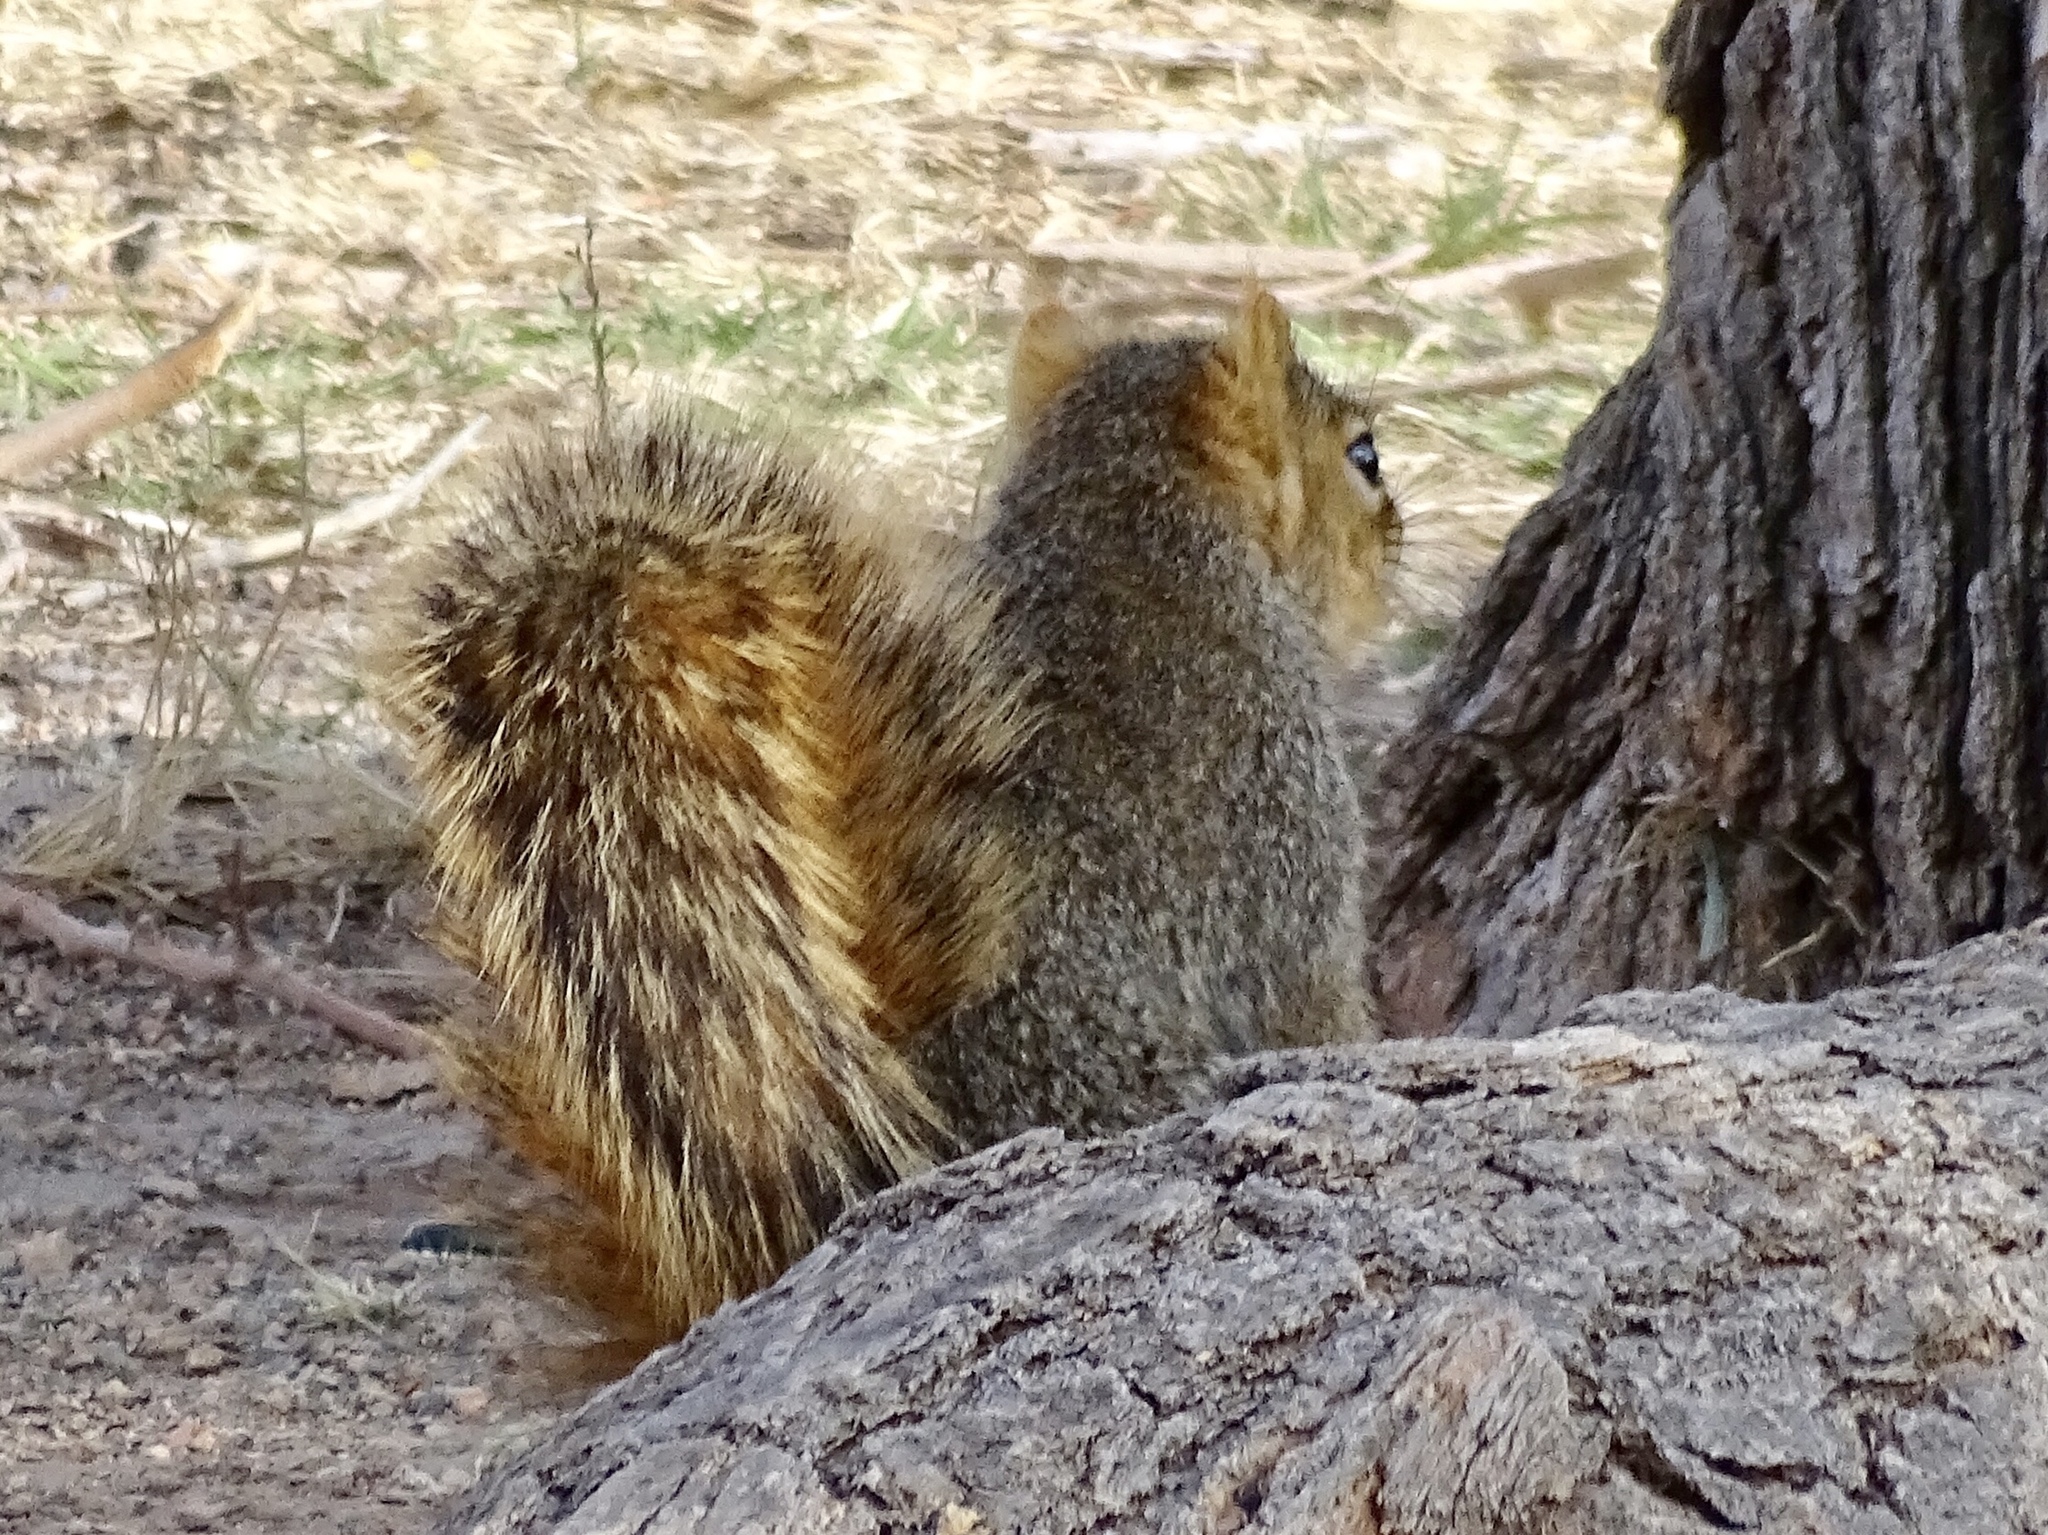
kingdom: Animalia
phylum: Chordata
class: Mammalia
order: Rodentia
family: Sciuridae
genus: Sciurus
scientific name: Sciurus niger
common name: Fox squirrel
